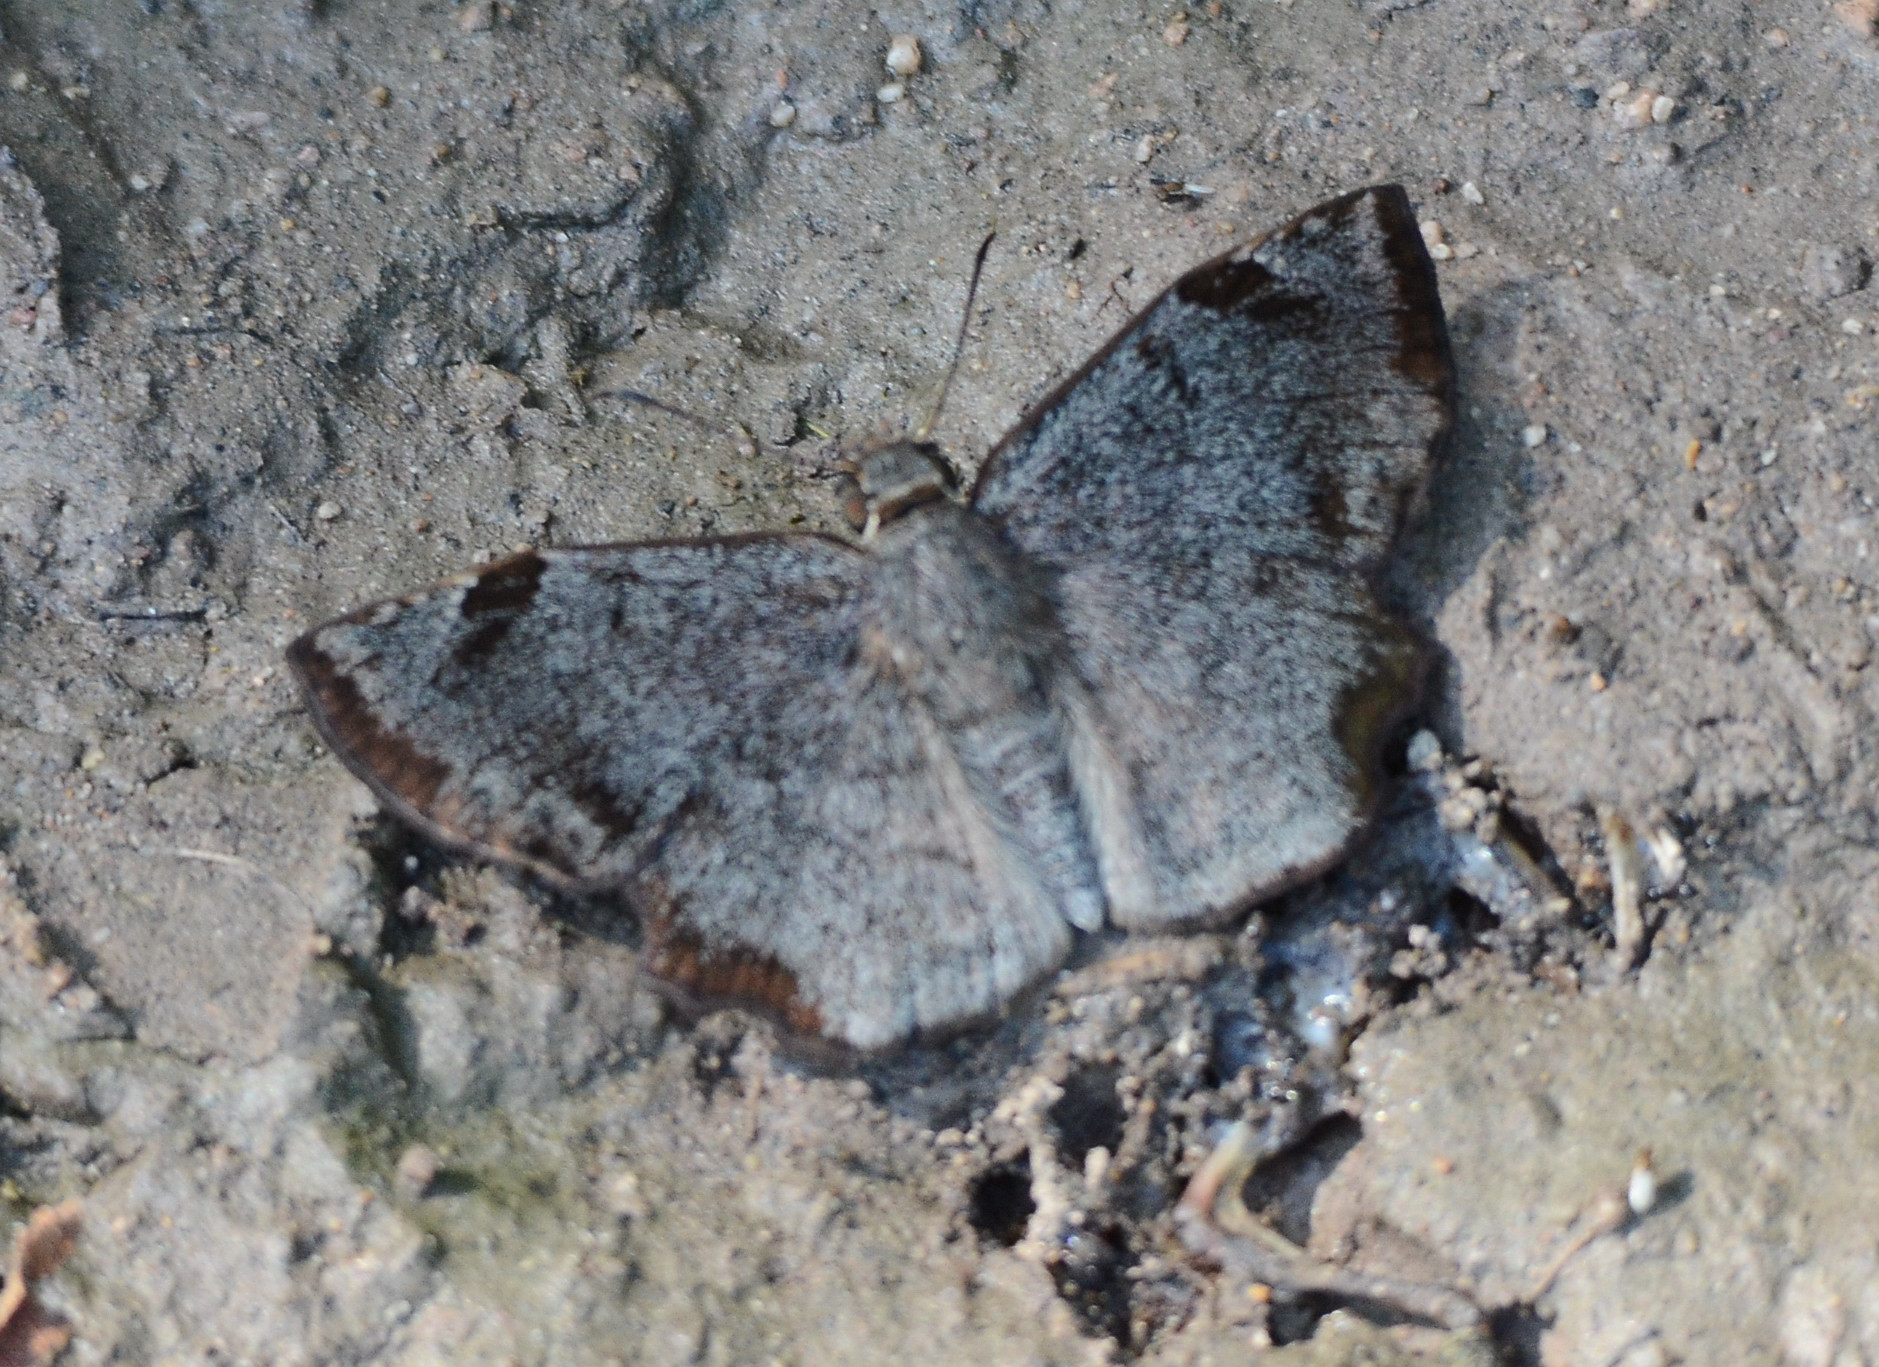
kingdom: Animalia
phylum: Arthropoda
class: Insecta
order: Lepidoptera
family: Hesperiidae
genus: Antigonus
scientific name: Antigonus erosus
